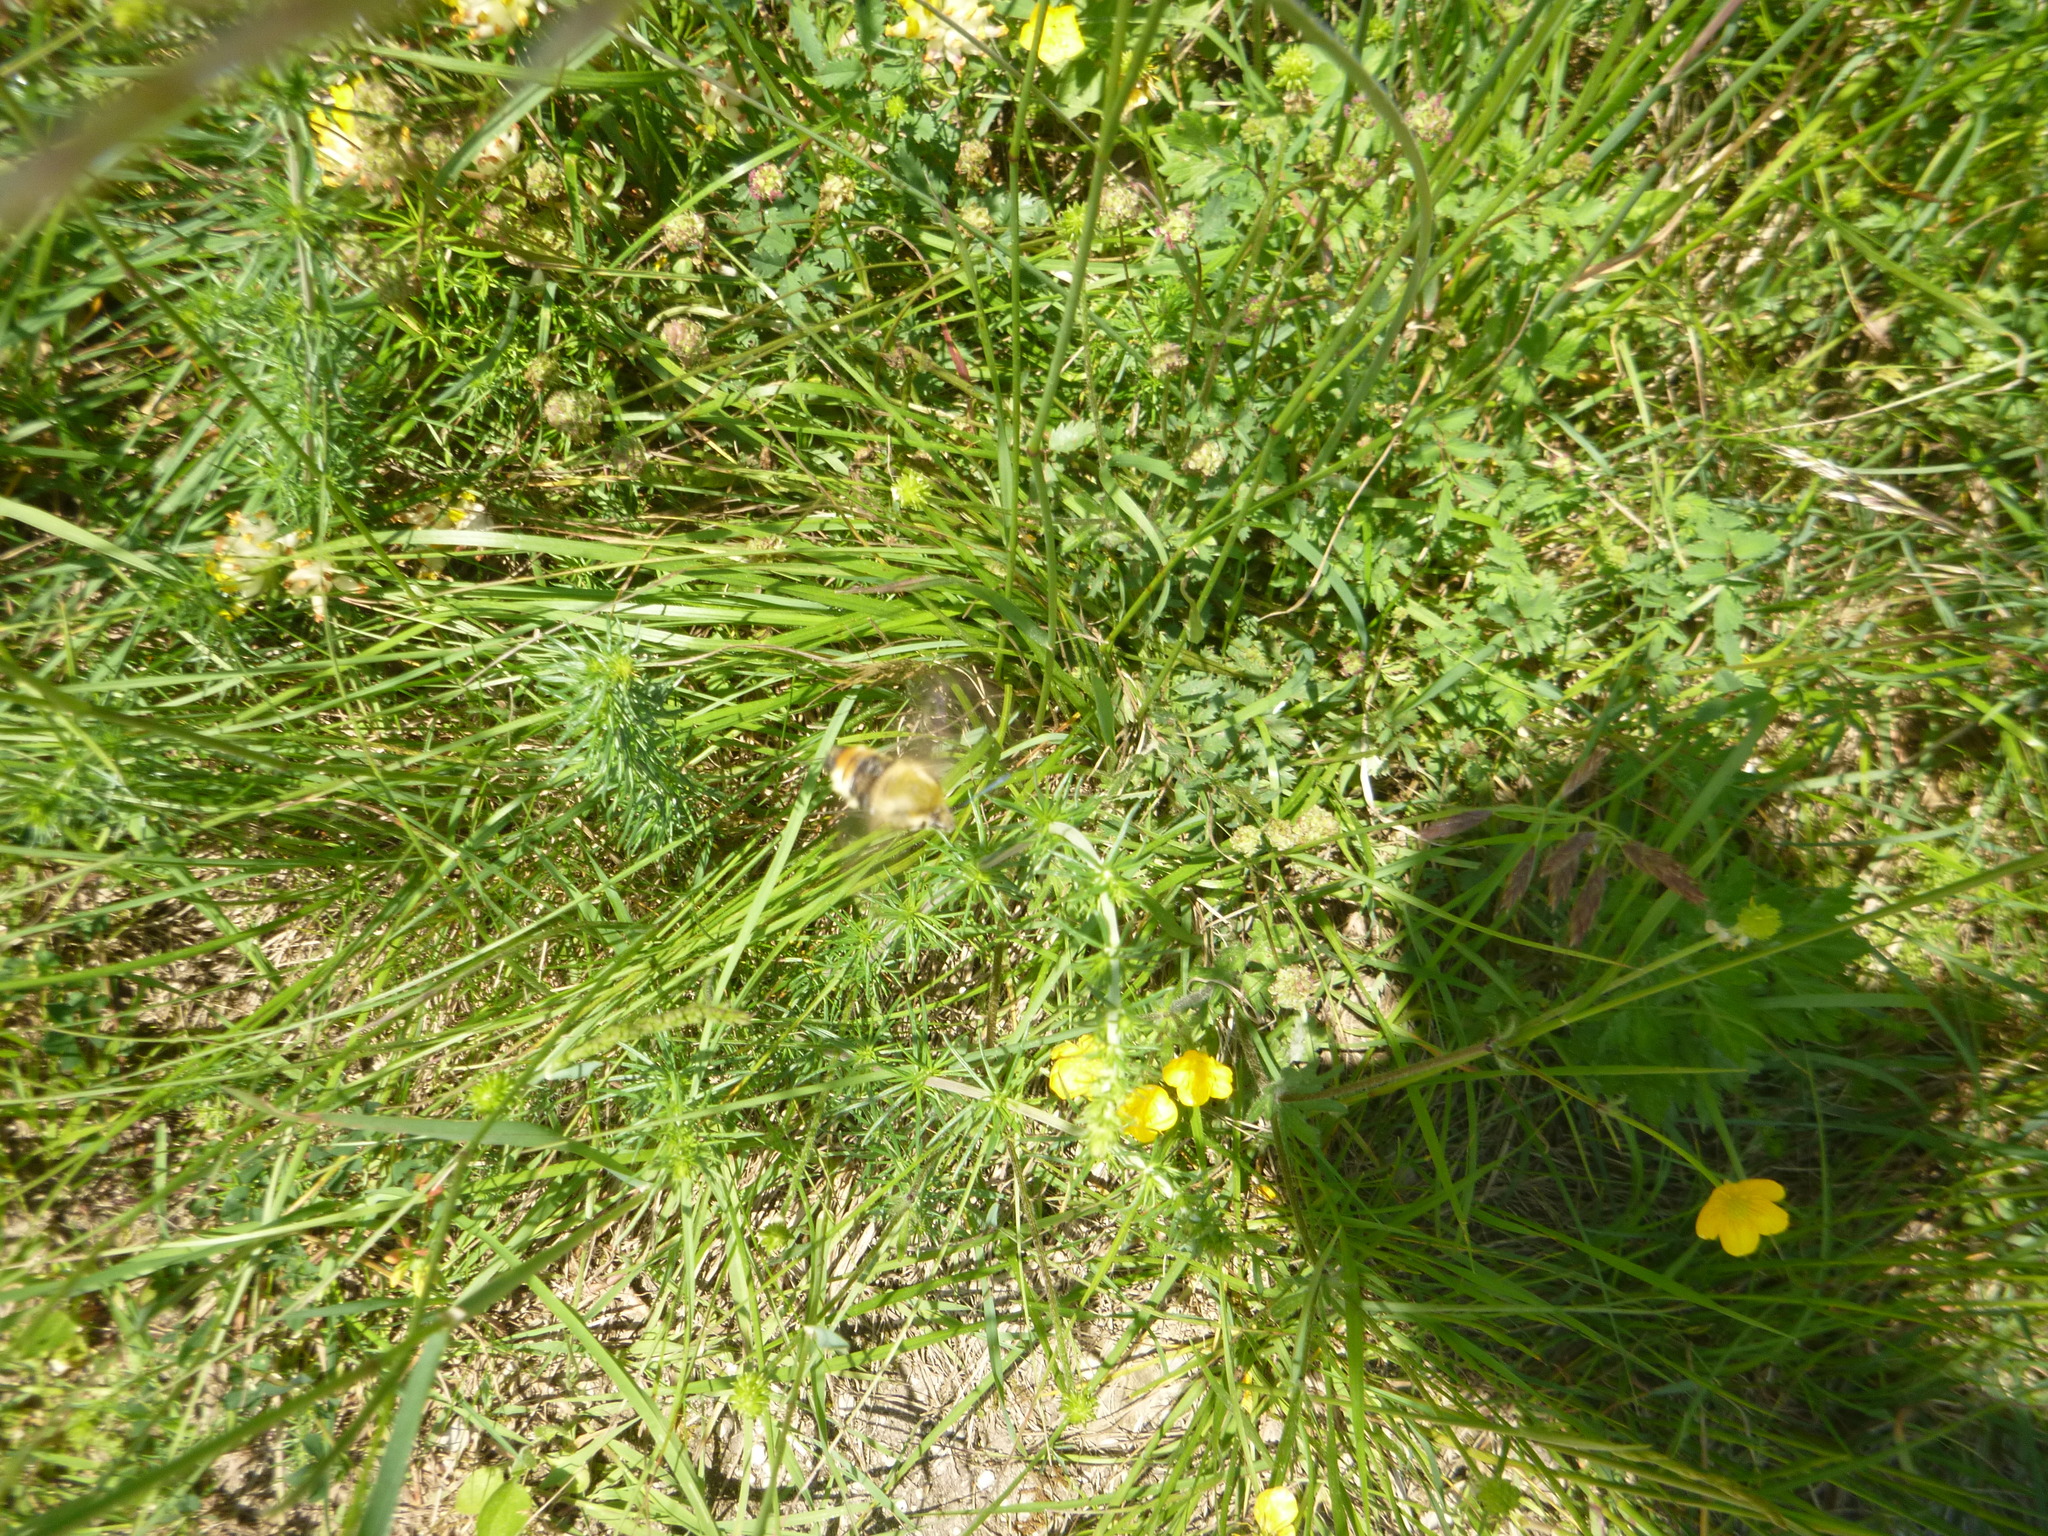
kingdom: Animalia
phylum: Arthropoda
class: Insecta
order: Lepidoptera
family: Sphingidae
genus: Hemaris
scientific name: Hemaris tityus
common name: Narrow-bordered bee hawk-moth
